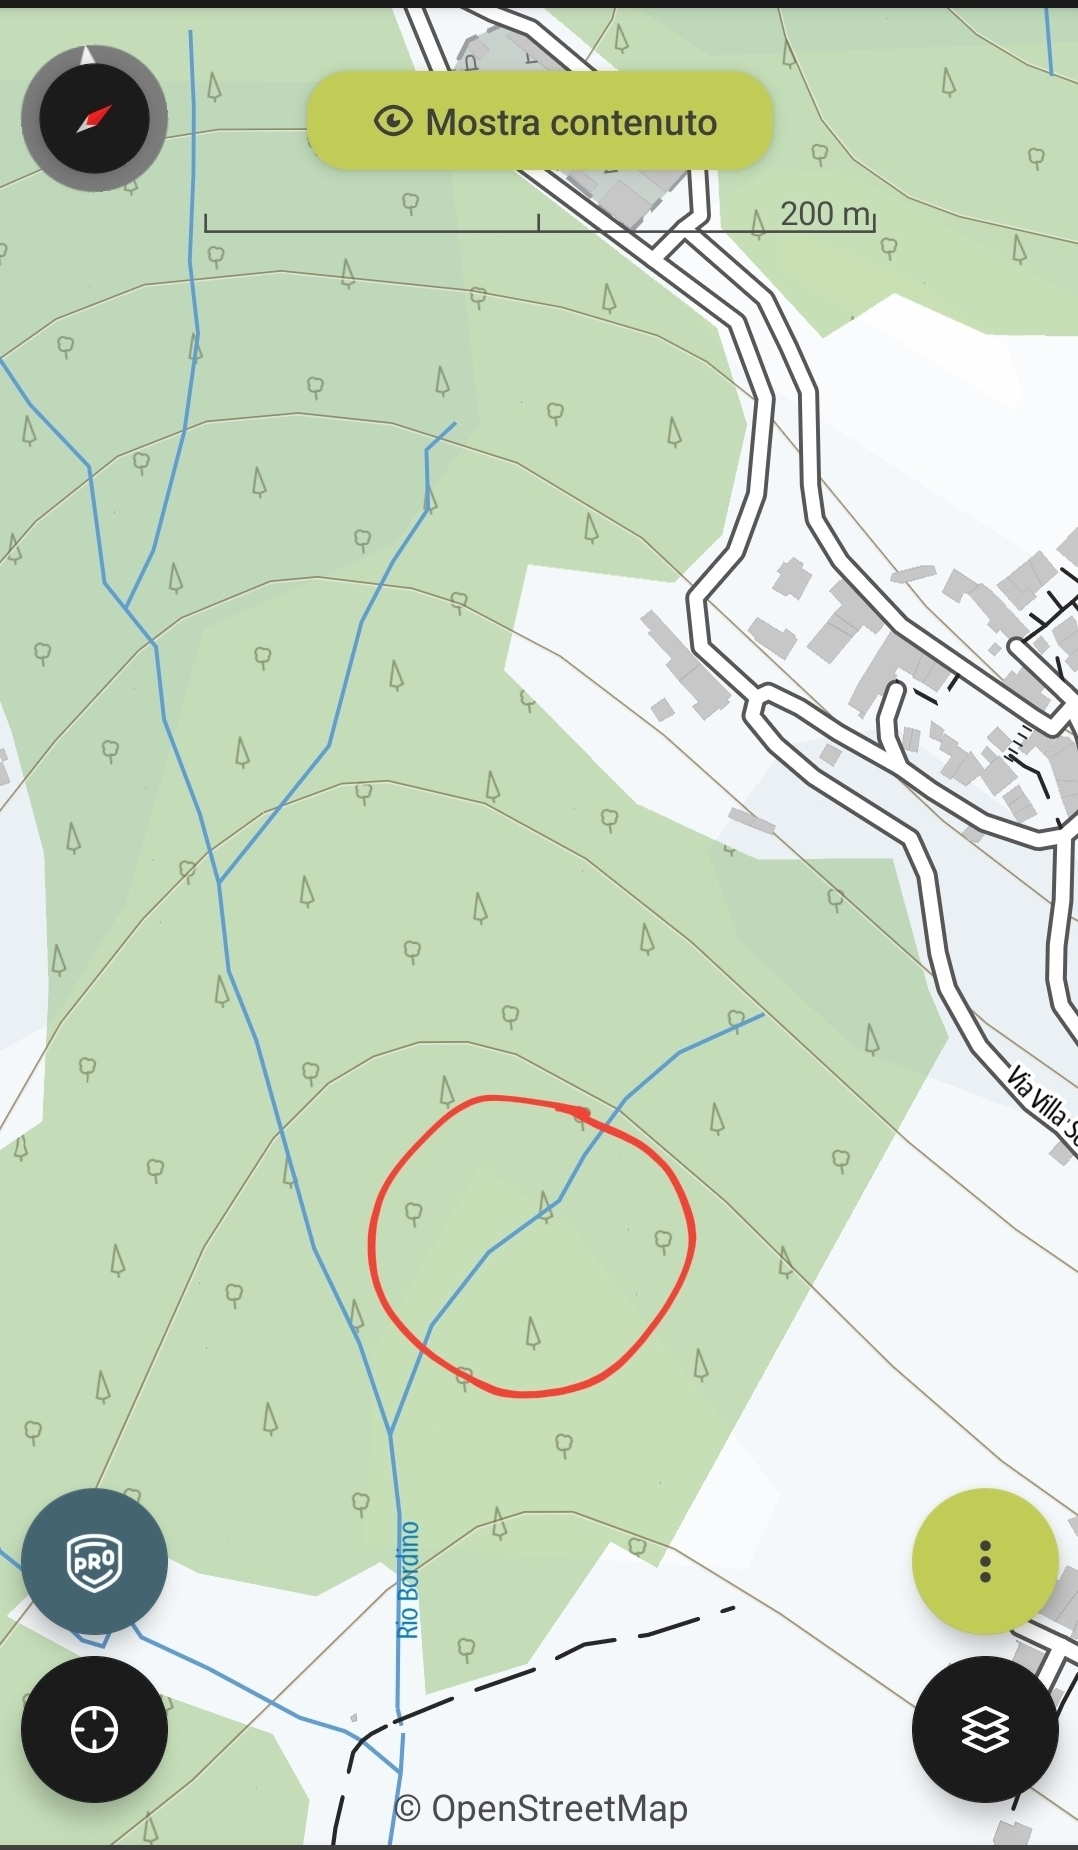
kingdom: Animalia
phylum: Chordata
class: Amphibia
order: Caudata
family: Salamandridae
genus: Salamandra
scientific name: Salamandra salamandra
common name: Fire salamander
